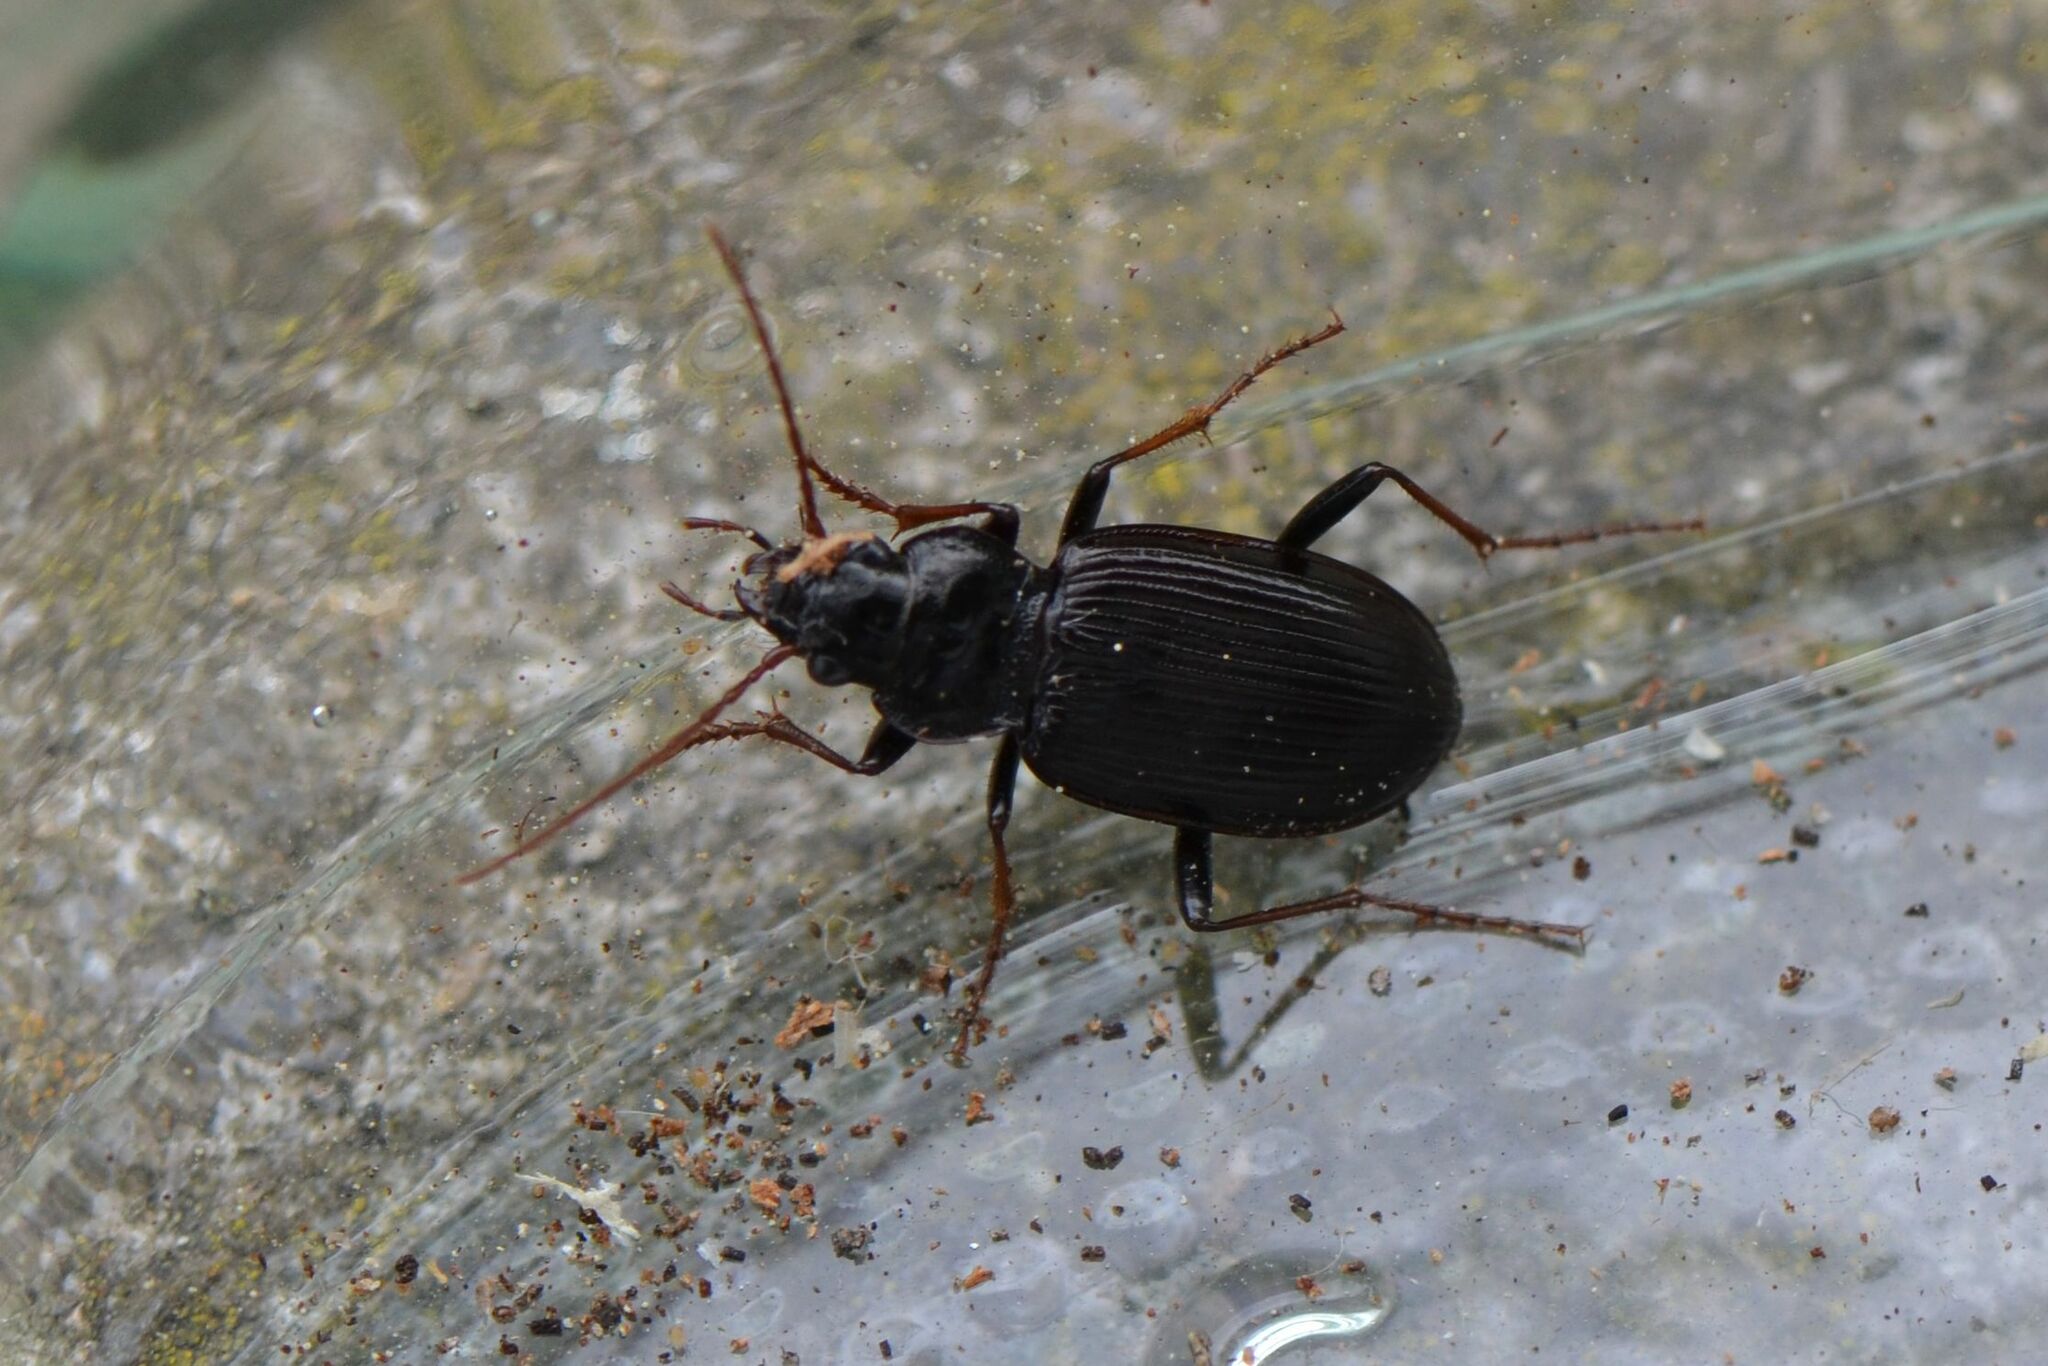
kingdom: Animalia
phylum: Arthropoda
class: Insecta
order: Coleoptera
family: Carabidae
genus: Nebria
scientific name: Nebria salina
